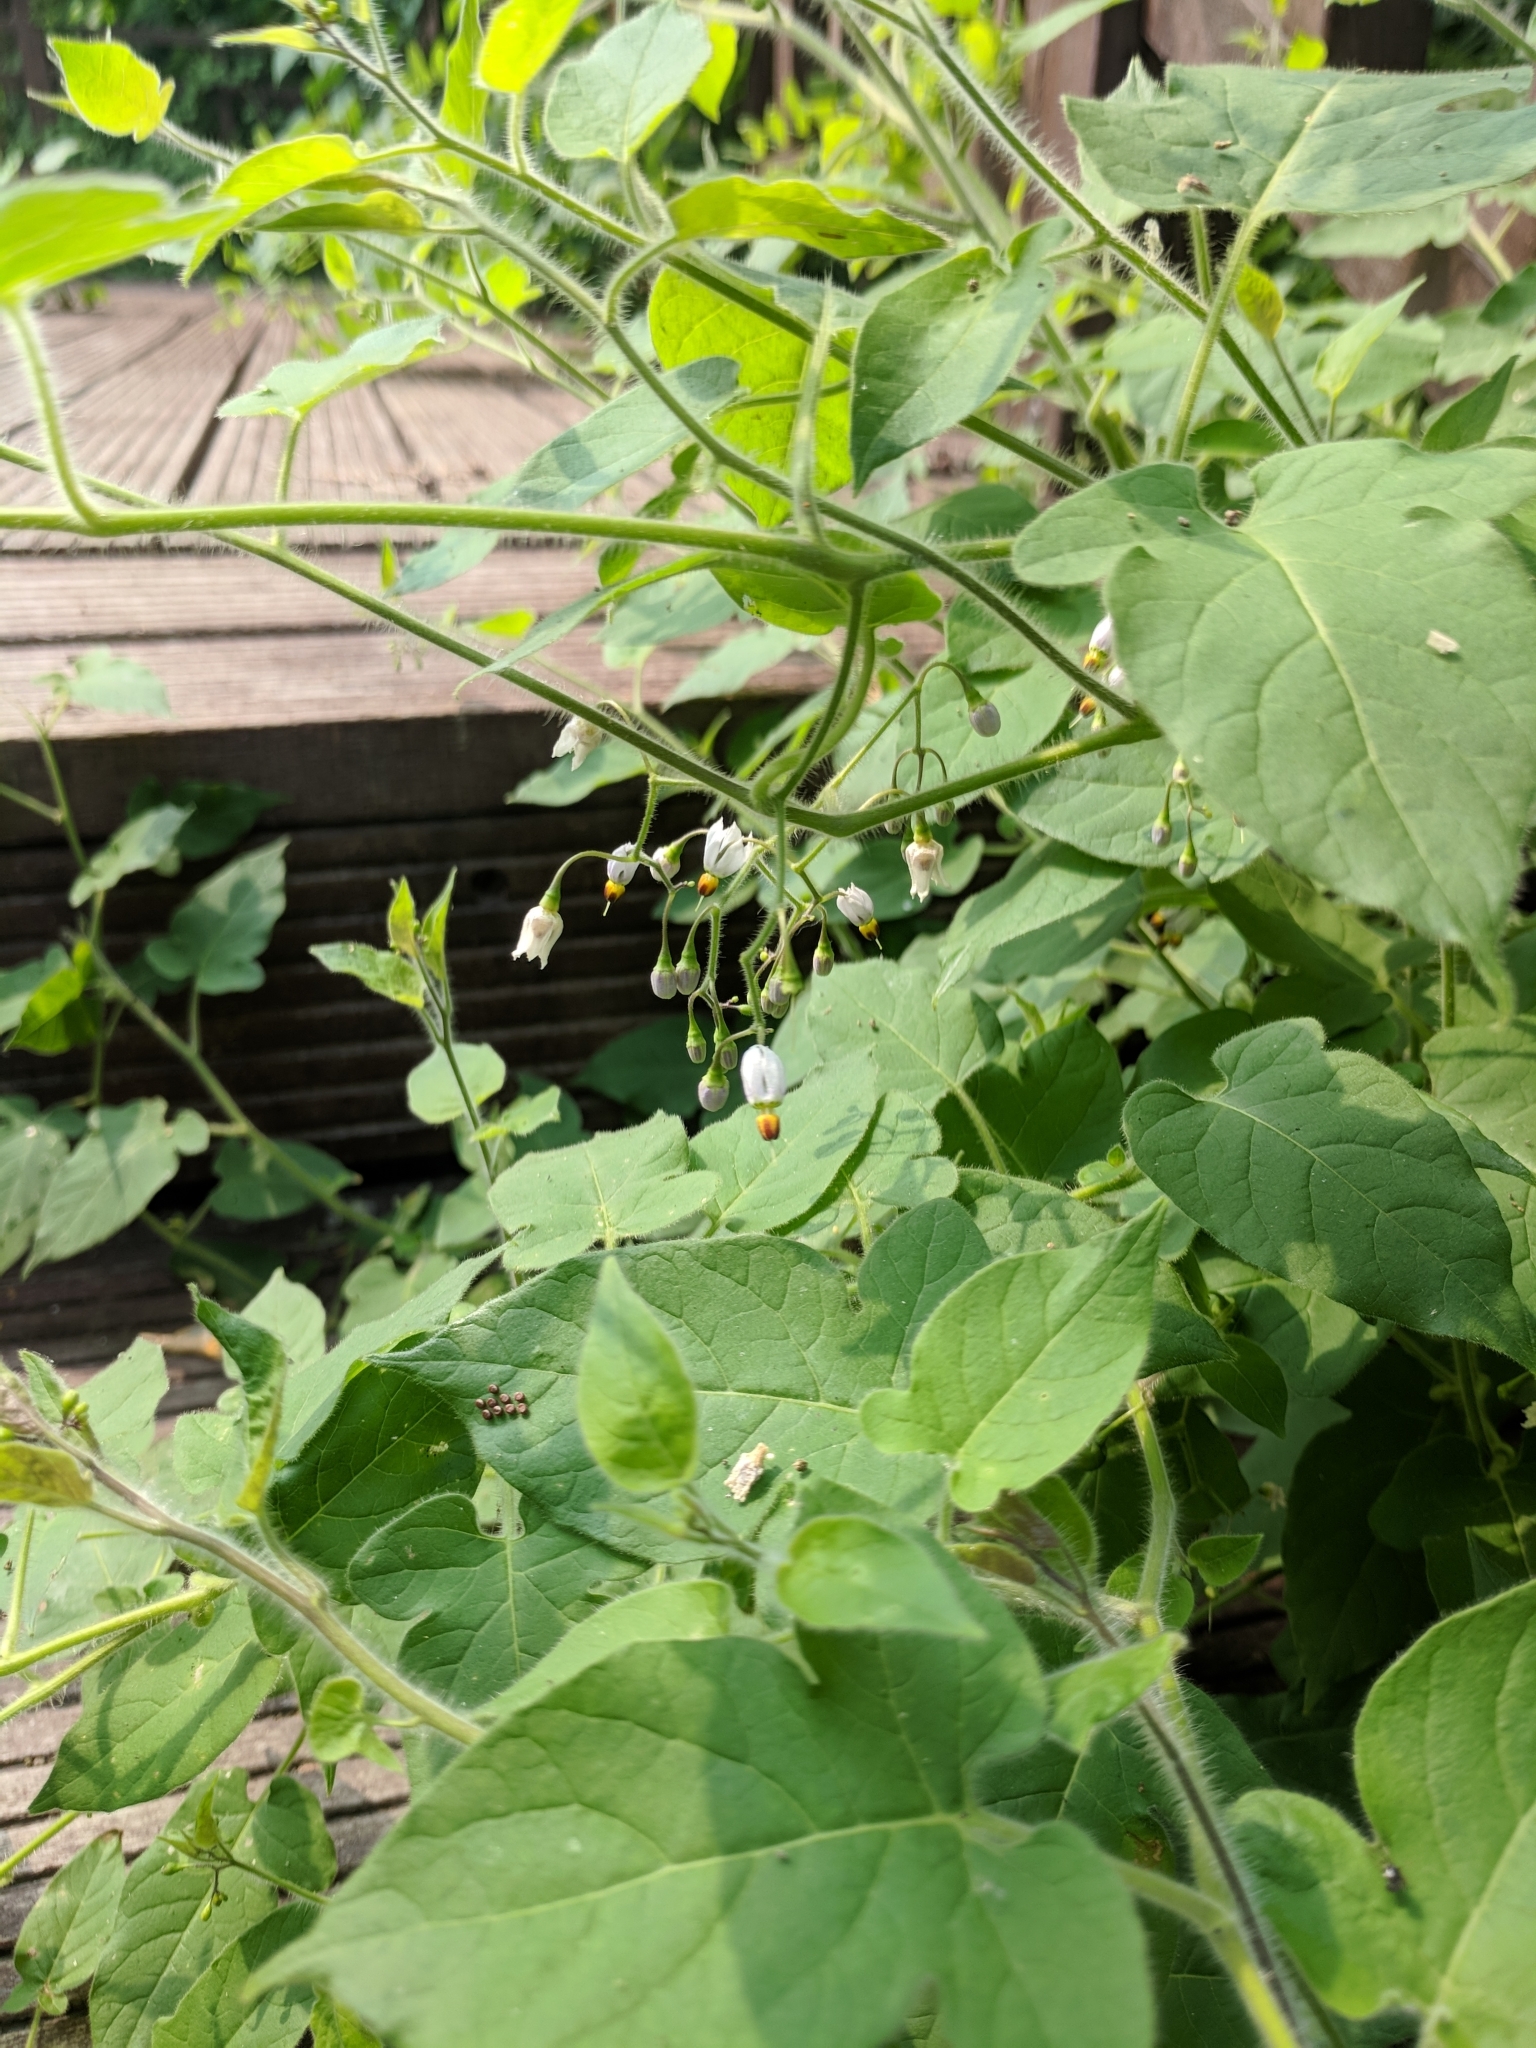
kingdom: Plantae
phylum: Tracheophyta
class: Magnoliopsida
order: Solanales
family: Solanaceae
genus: Solanum
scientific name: Solanum lyratum
